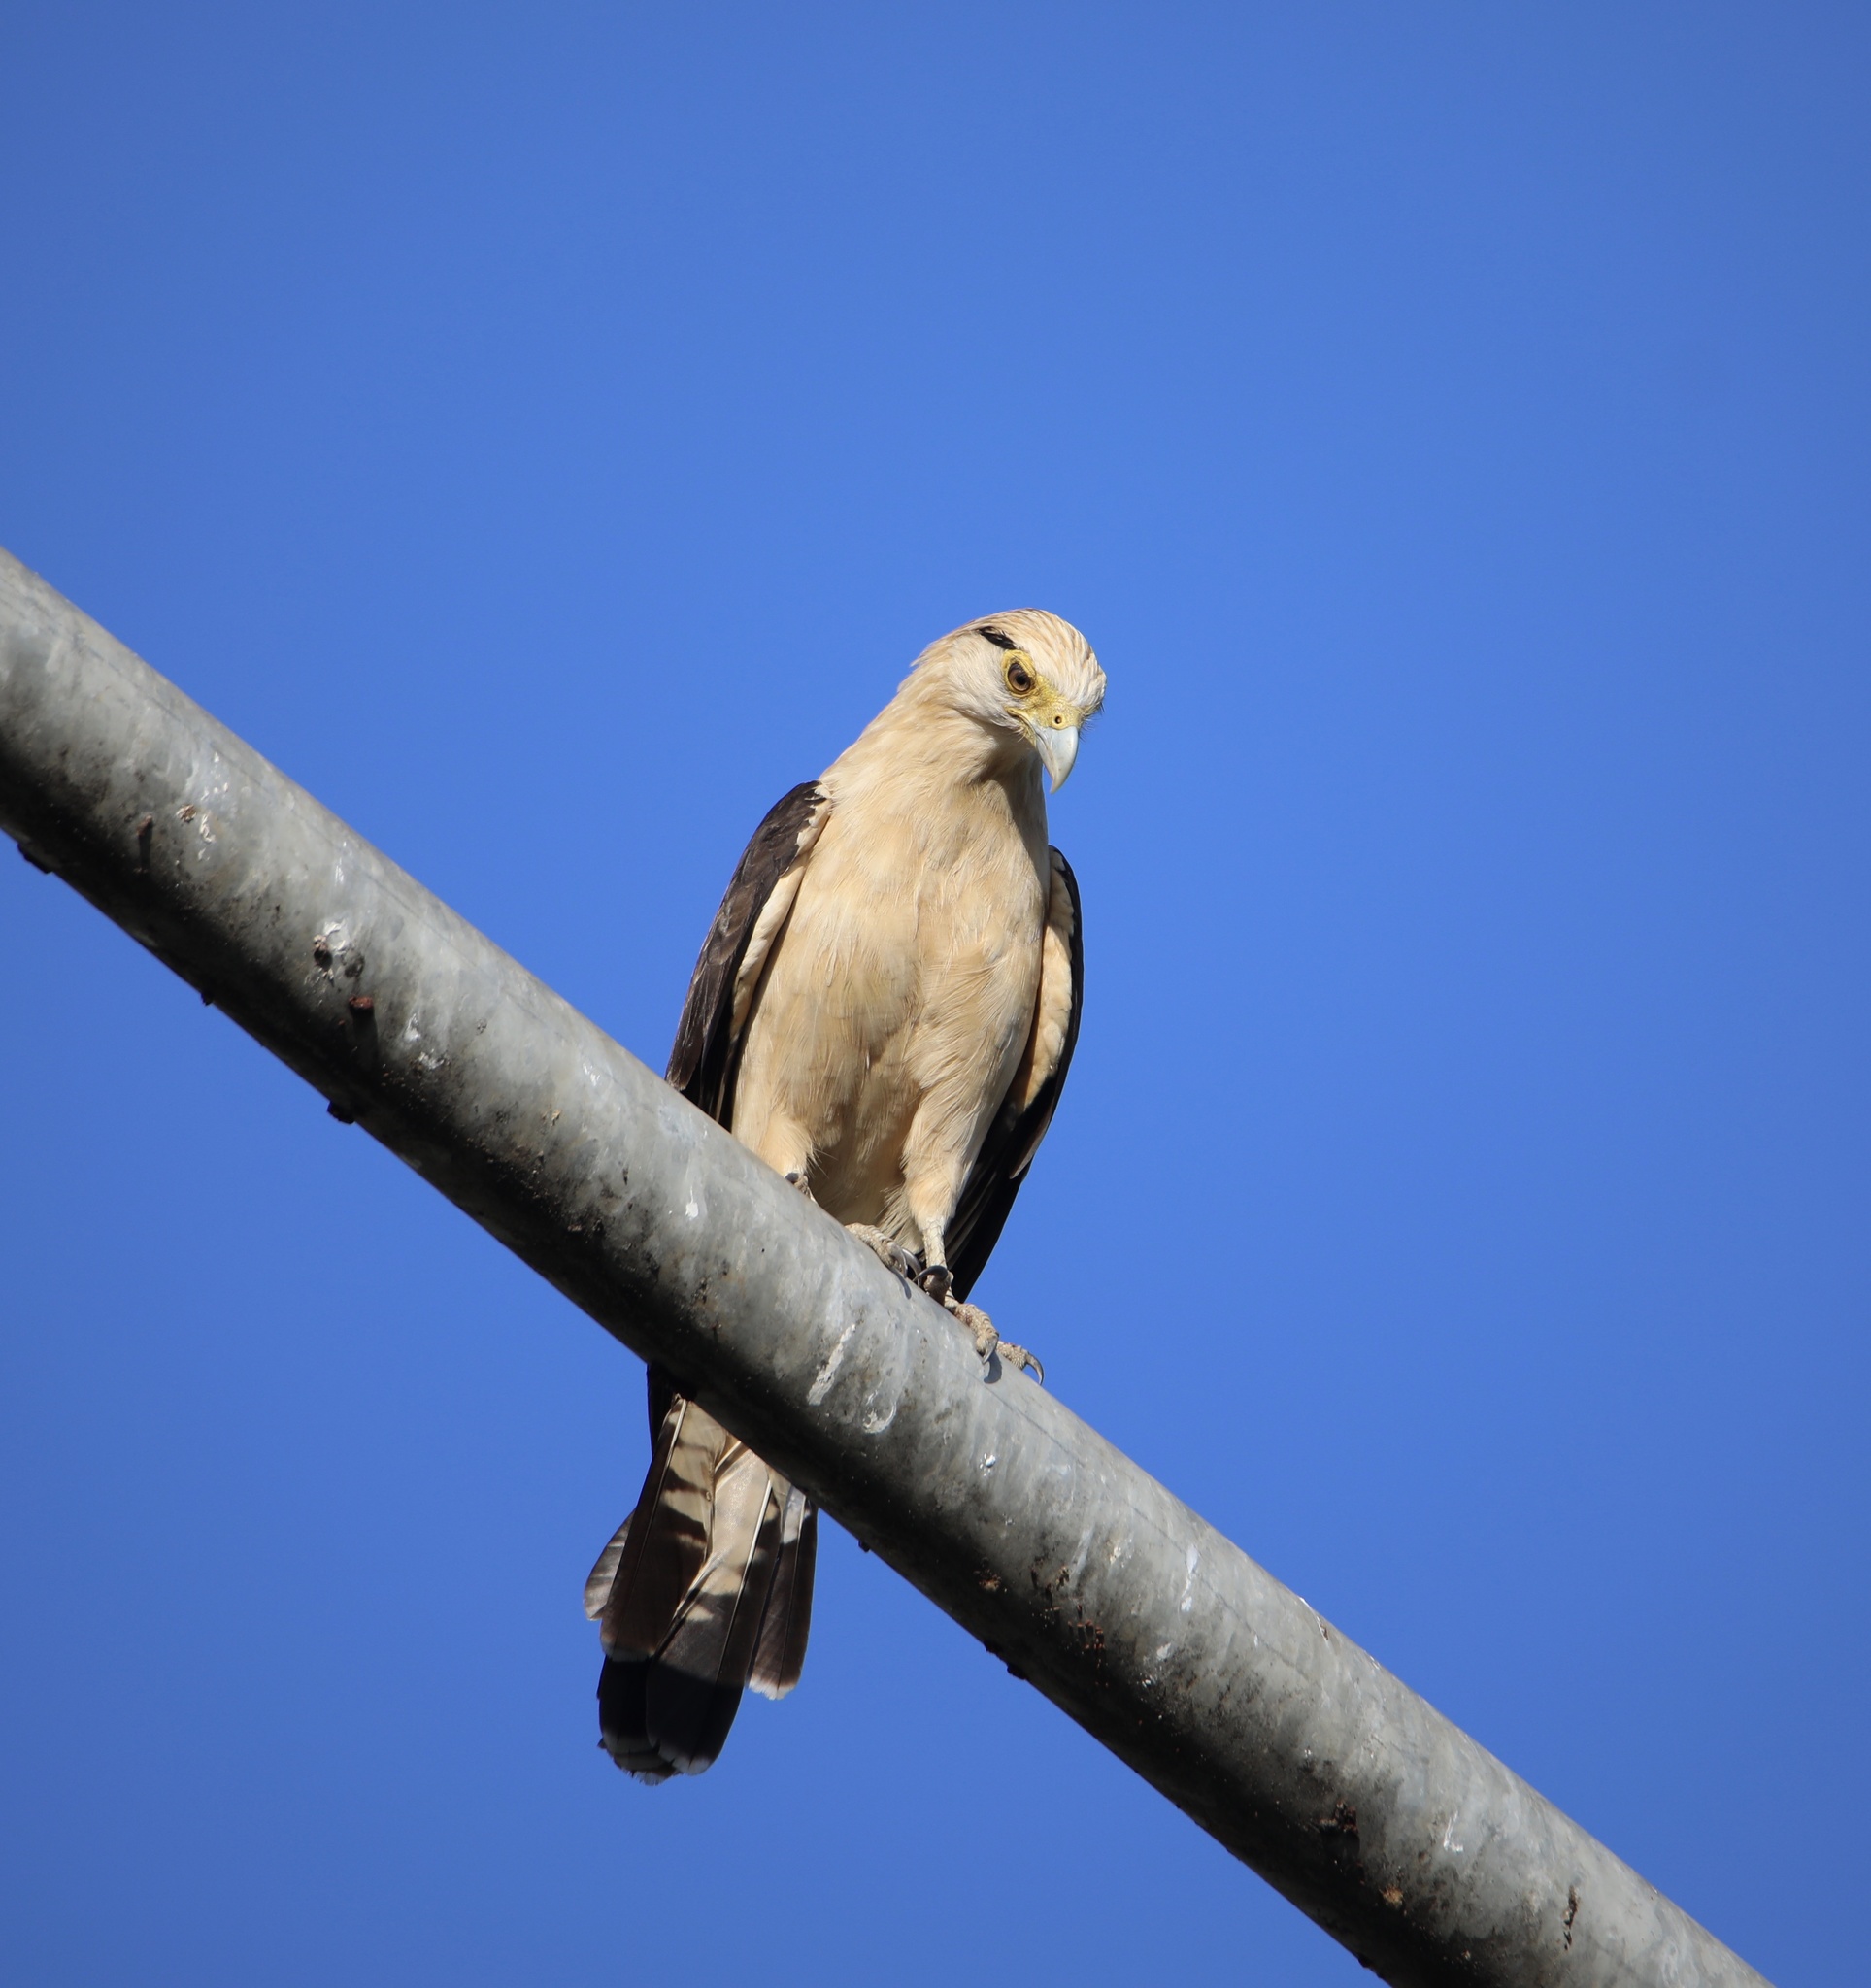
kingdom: Animalia
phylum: Chordata
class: Aves
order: Falconiformes
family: Falconidae
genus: Daptrius
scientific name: Daptrius
